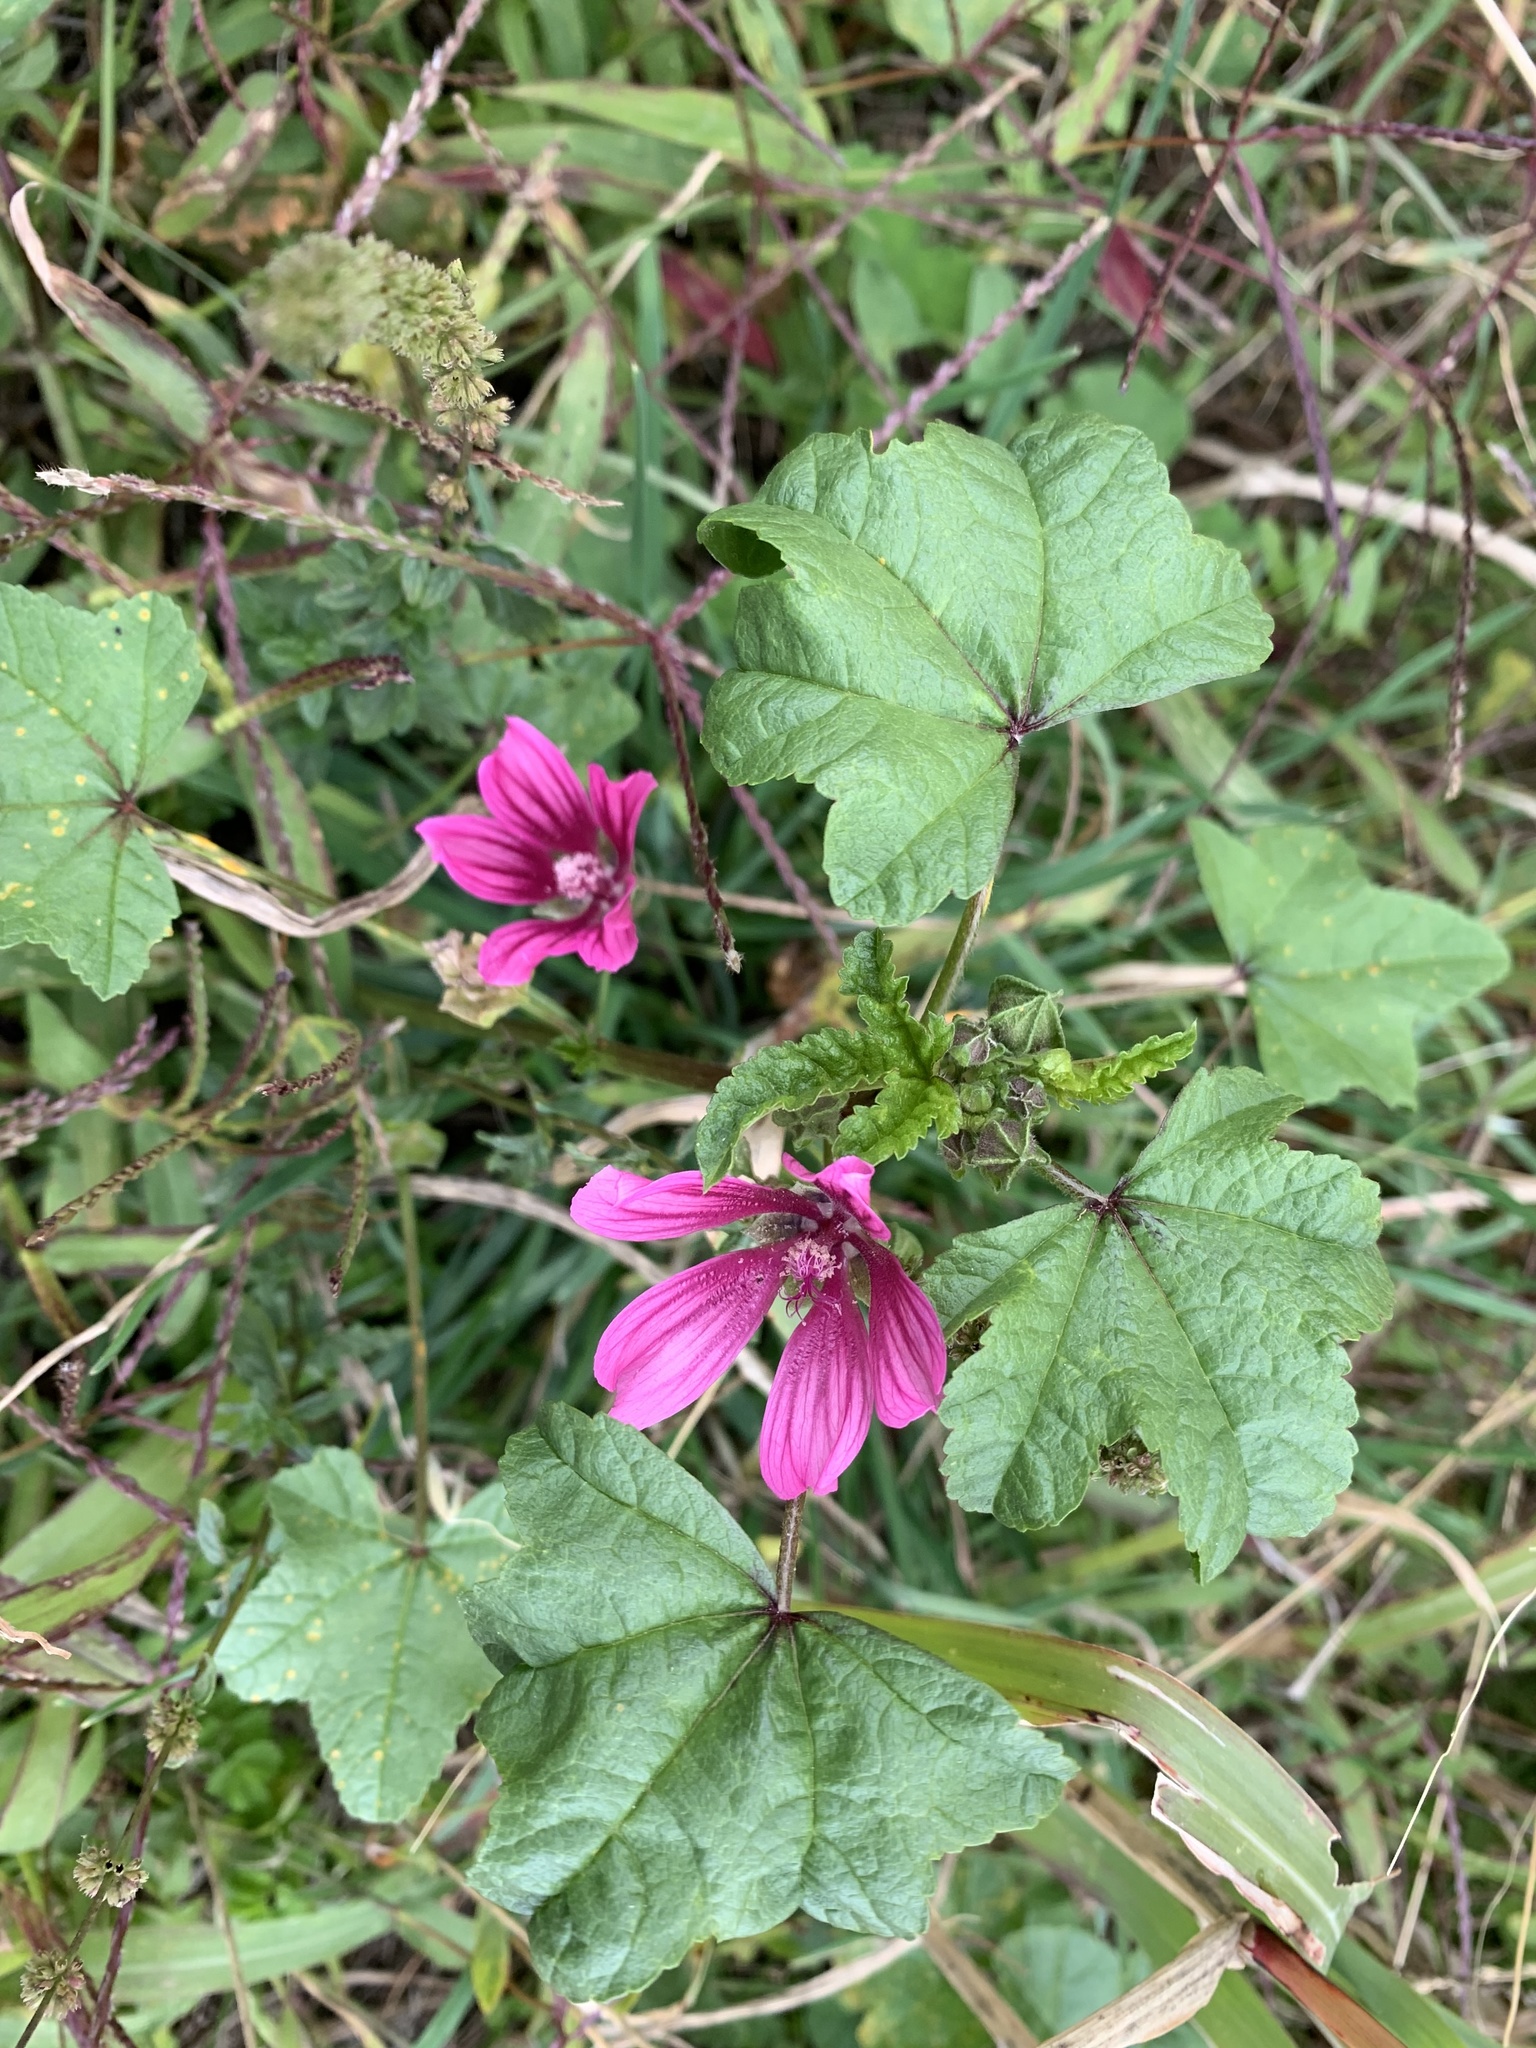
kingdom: Plantae
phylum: Tracheophyta
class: Magnoliopsida
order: Malvales
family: Malvaceae
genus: Malva
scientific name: Malva sylvestris
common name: Common mallow
